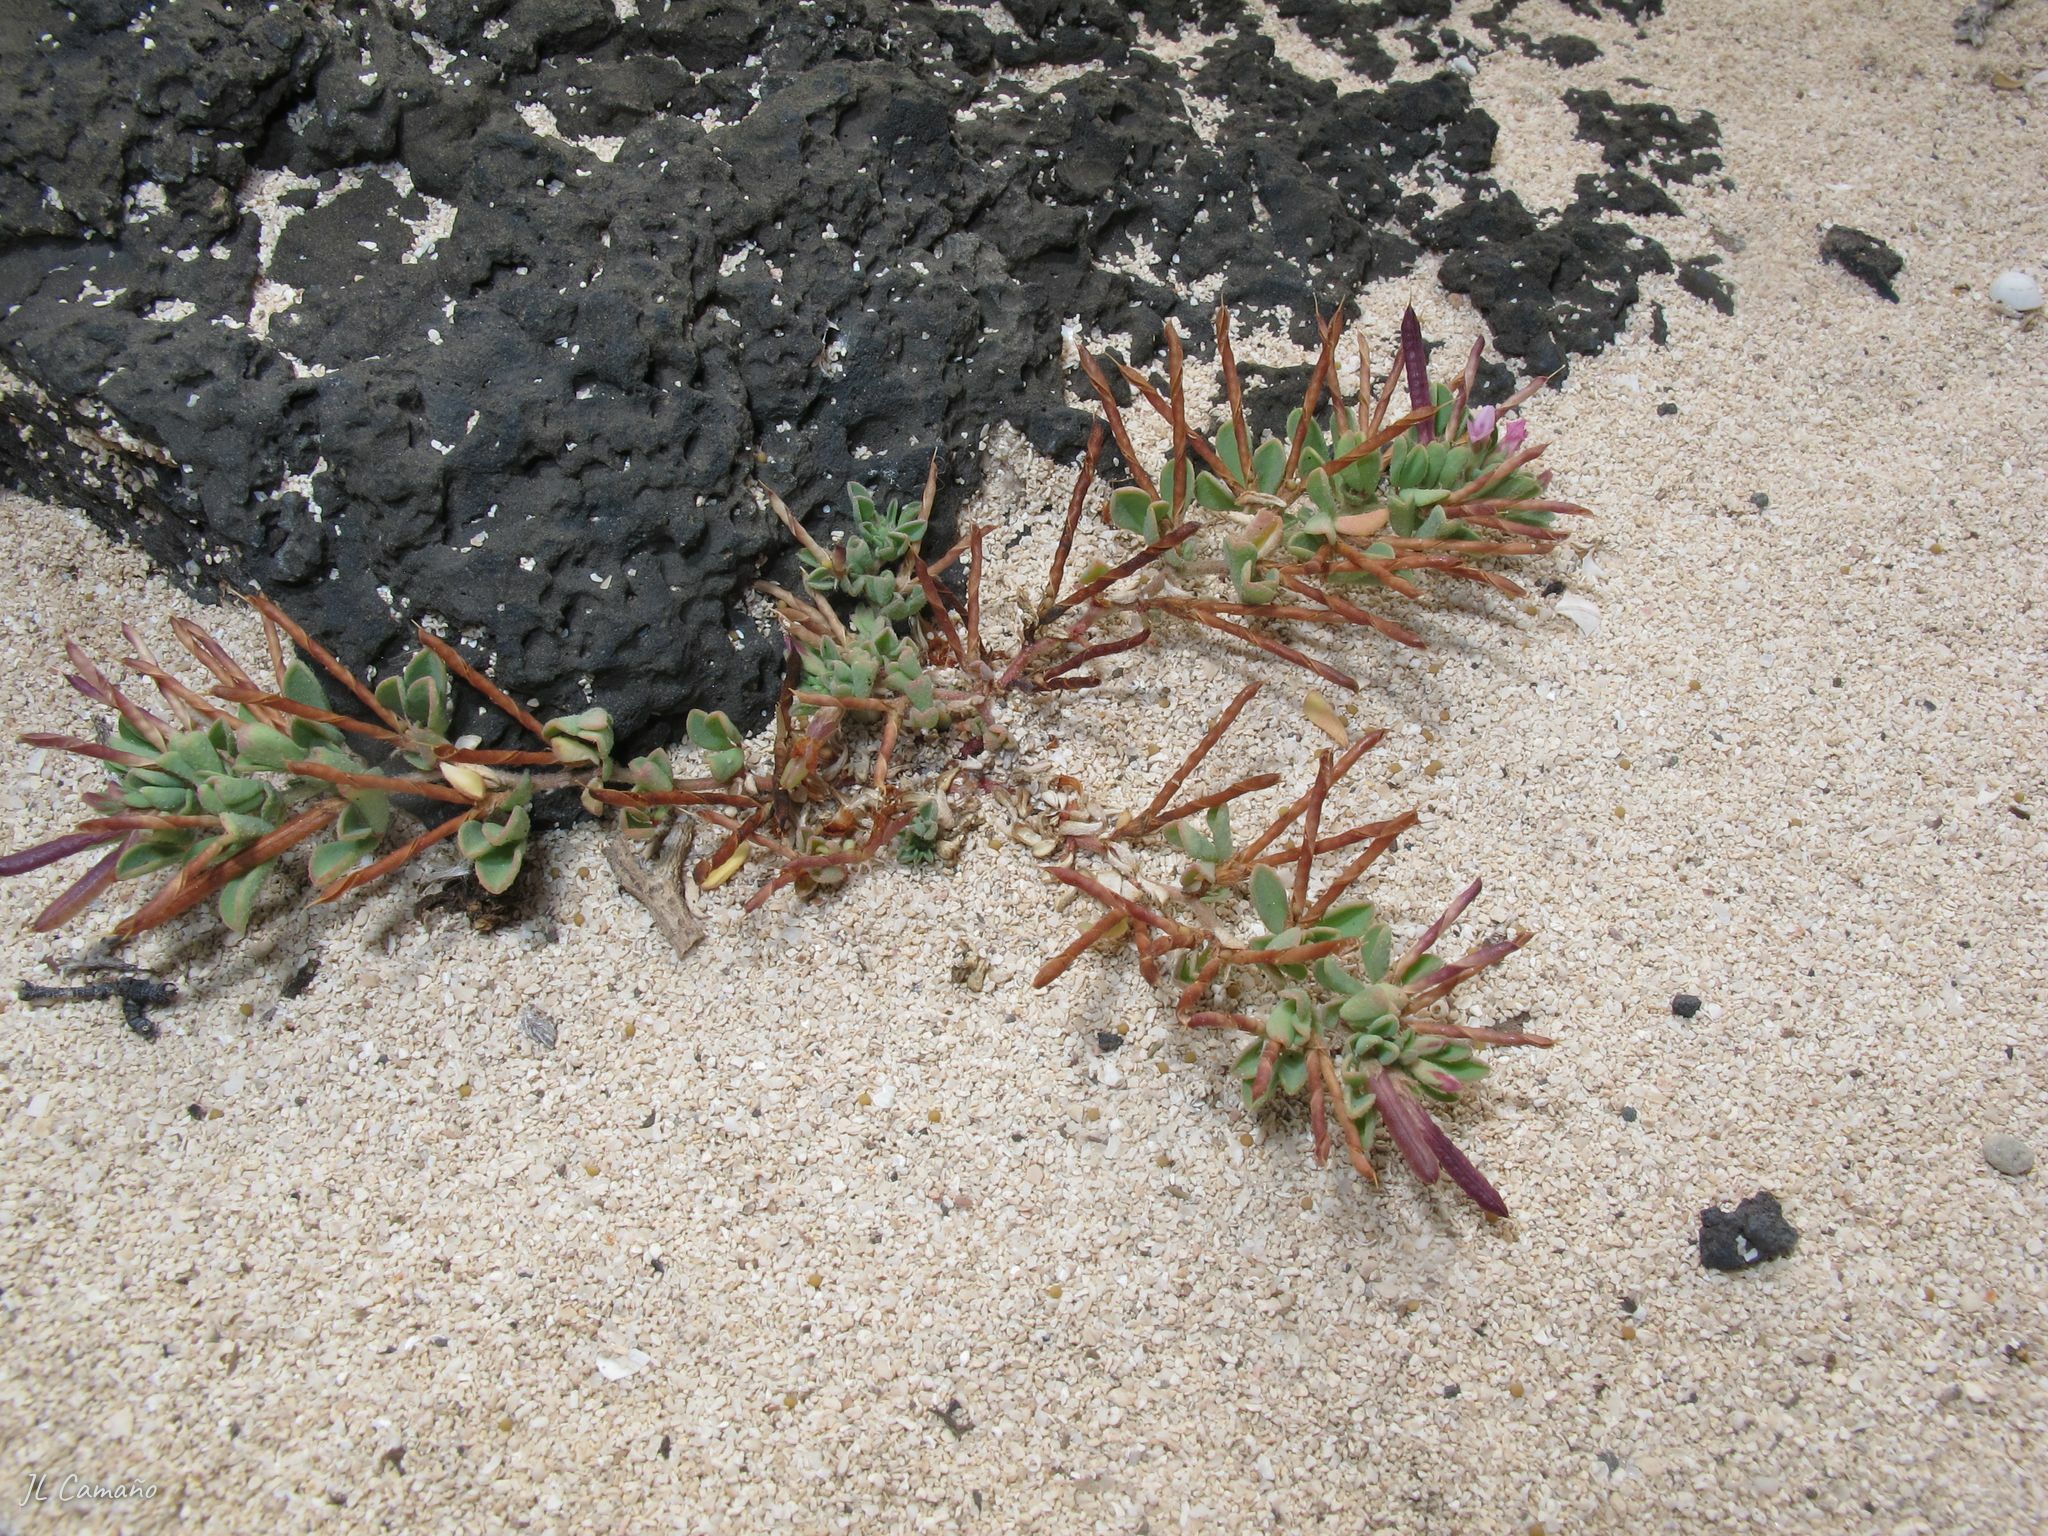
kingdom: Plantae
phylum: Tracheophyta
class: Magnoliopsida
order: Fabales
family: Fabaceae
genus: Lotus
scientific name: Lotus glinoides
